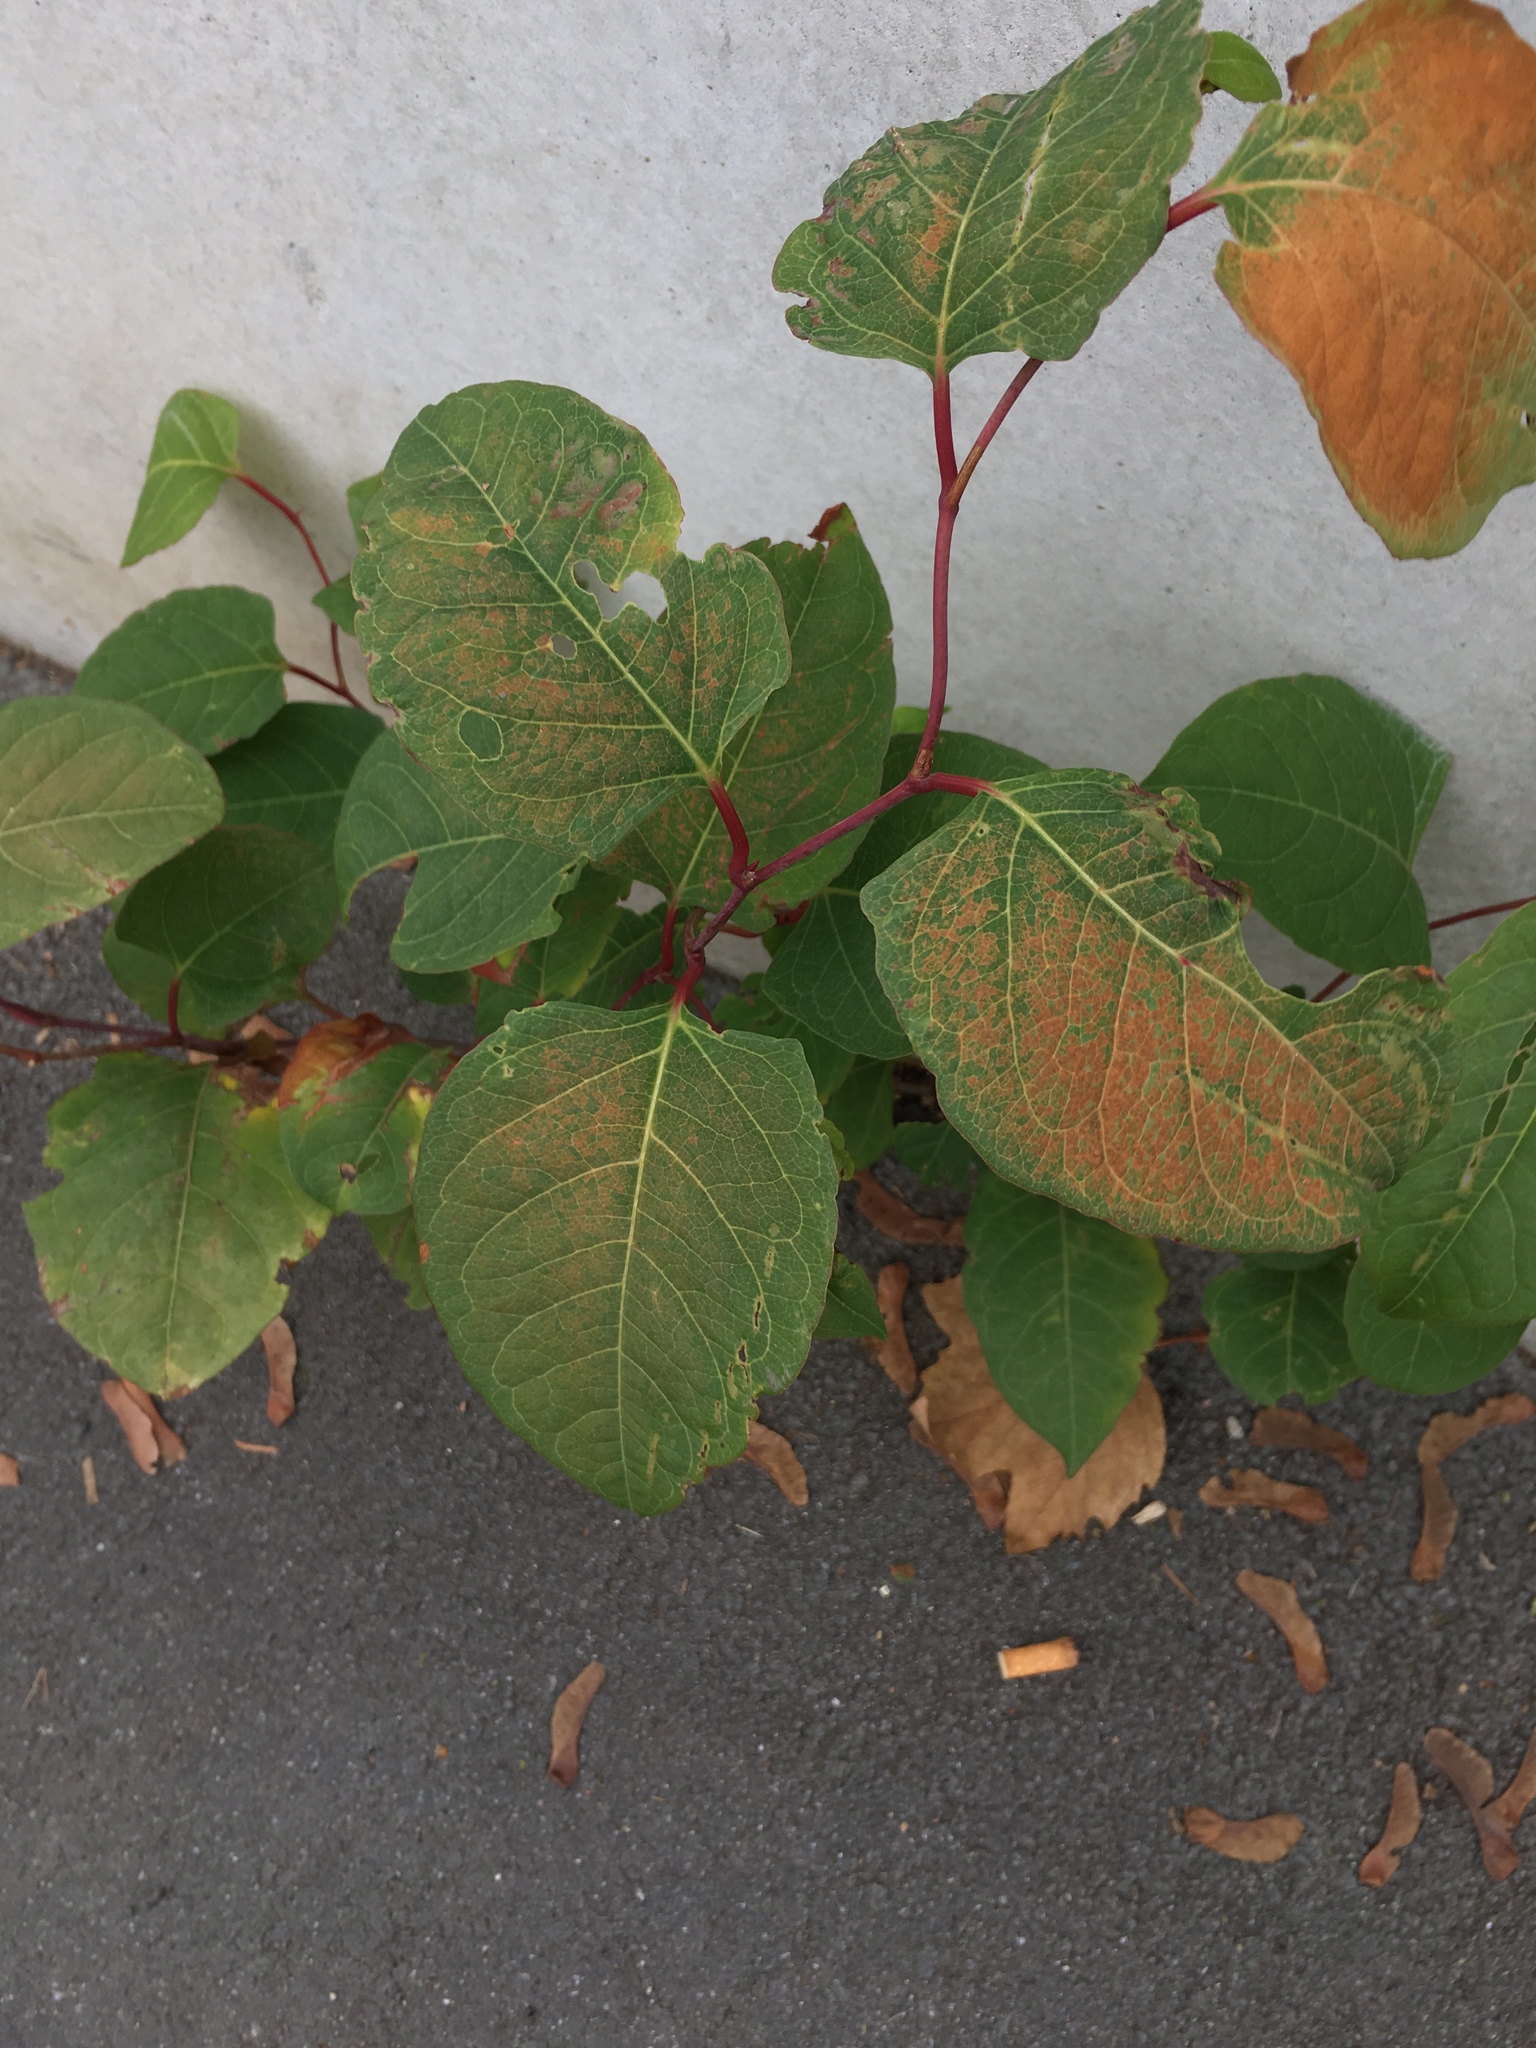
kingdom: Plantae
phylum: Tracheophyta
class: Magnoliopsida
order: Caryophyllales
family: Polygonaceae
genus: Reynoutria
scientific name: Reynoutria japonica
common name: Japanese knotweed
